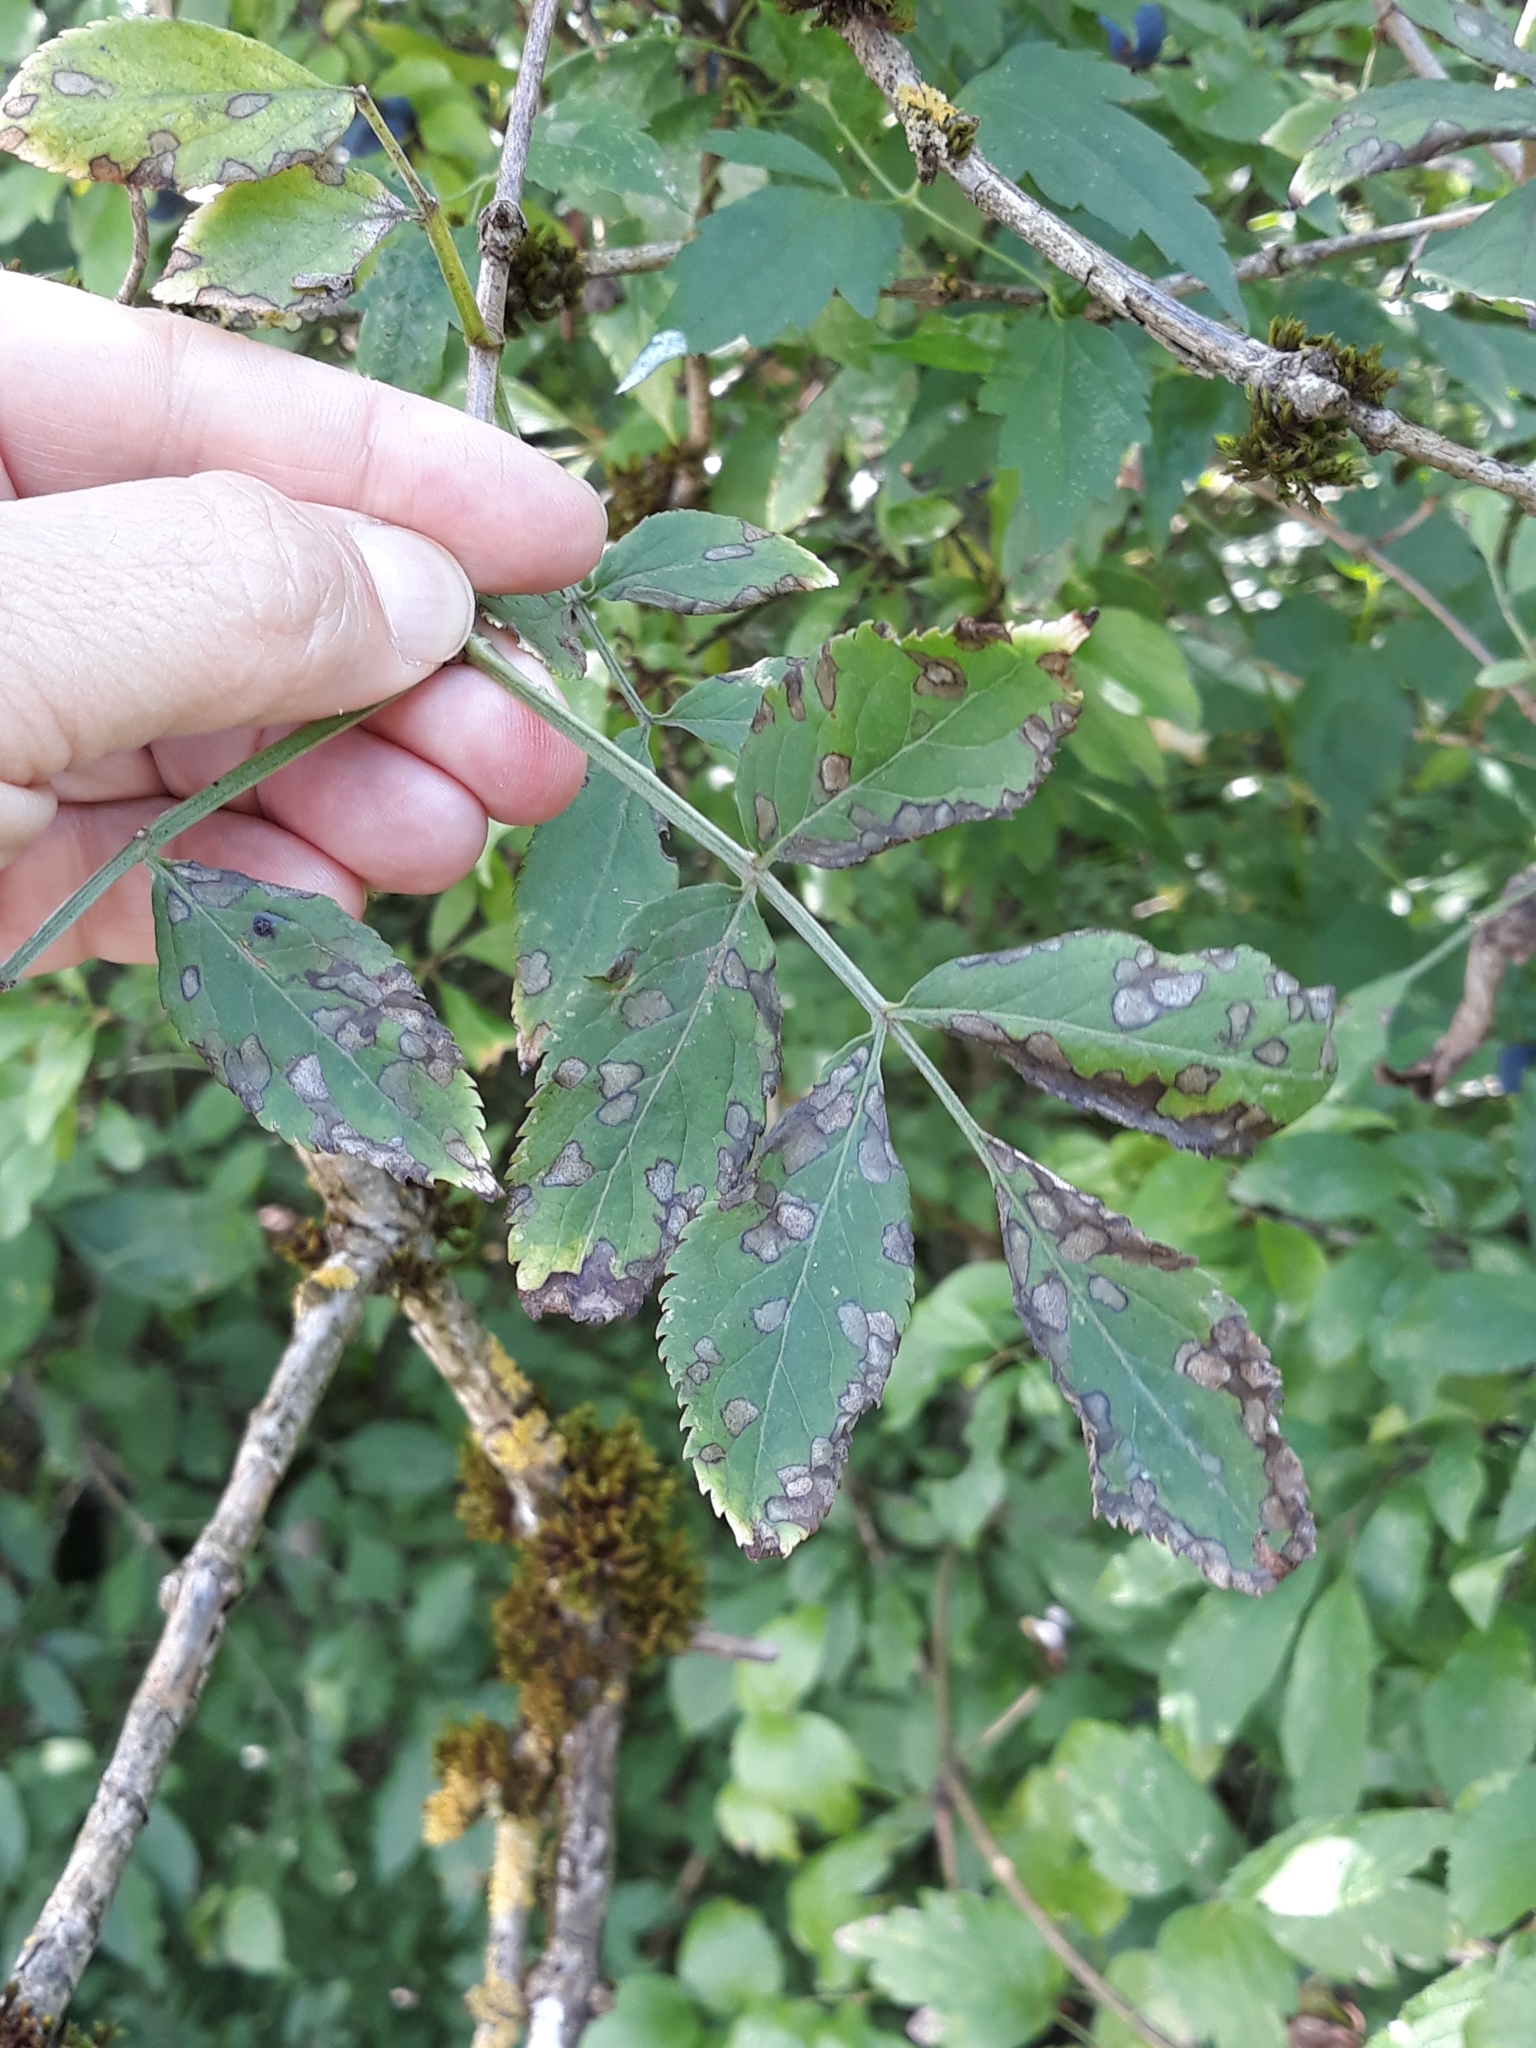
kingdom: Plantae
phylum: Tracheophyta
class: Magnoliopsida
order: Dipsacales
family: Viburnaceae
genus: Sambucus
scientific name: Sambucus nigra
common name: Elder
